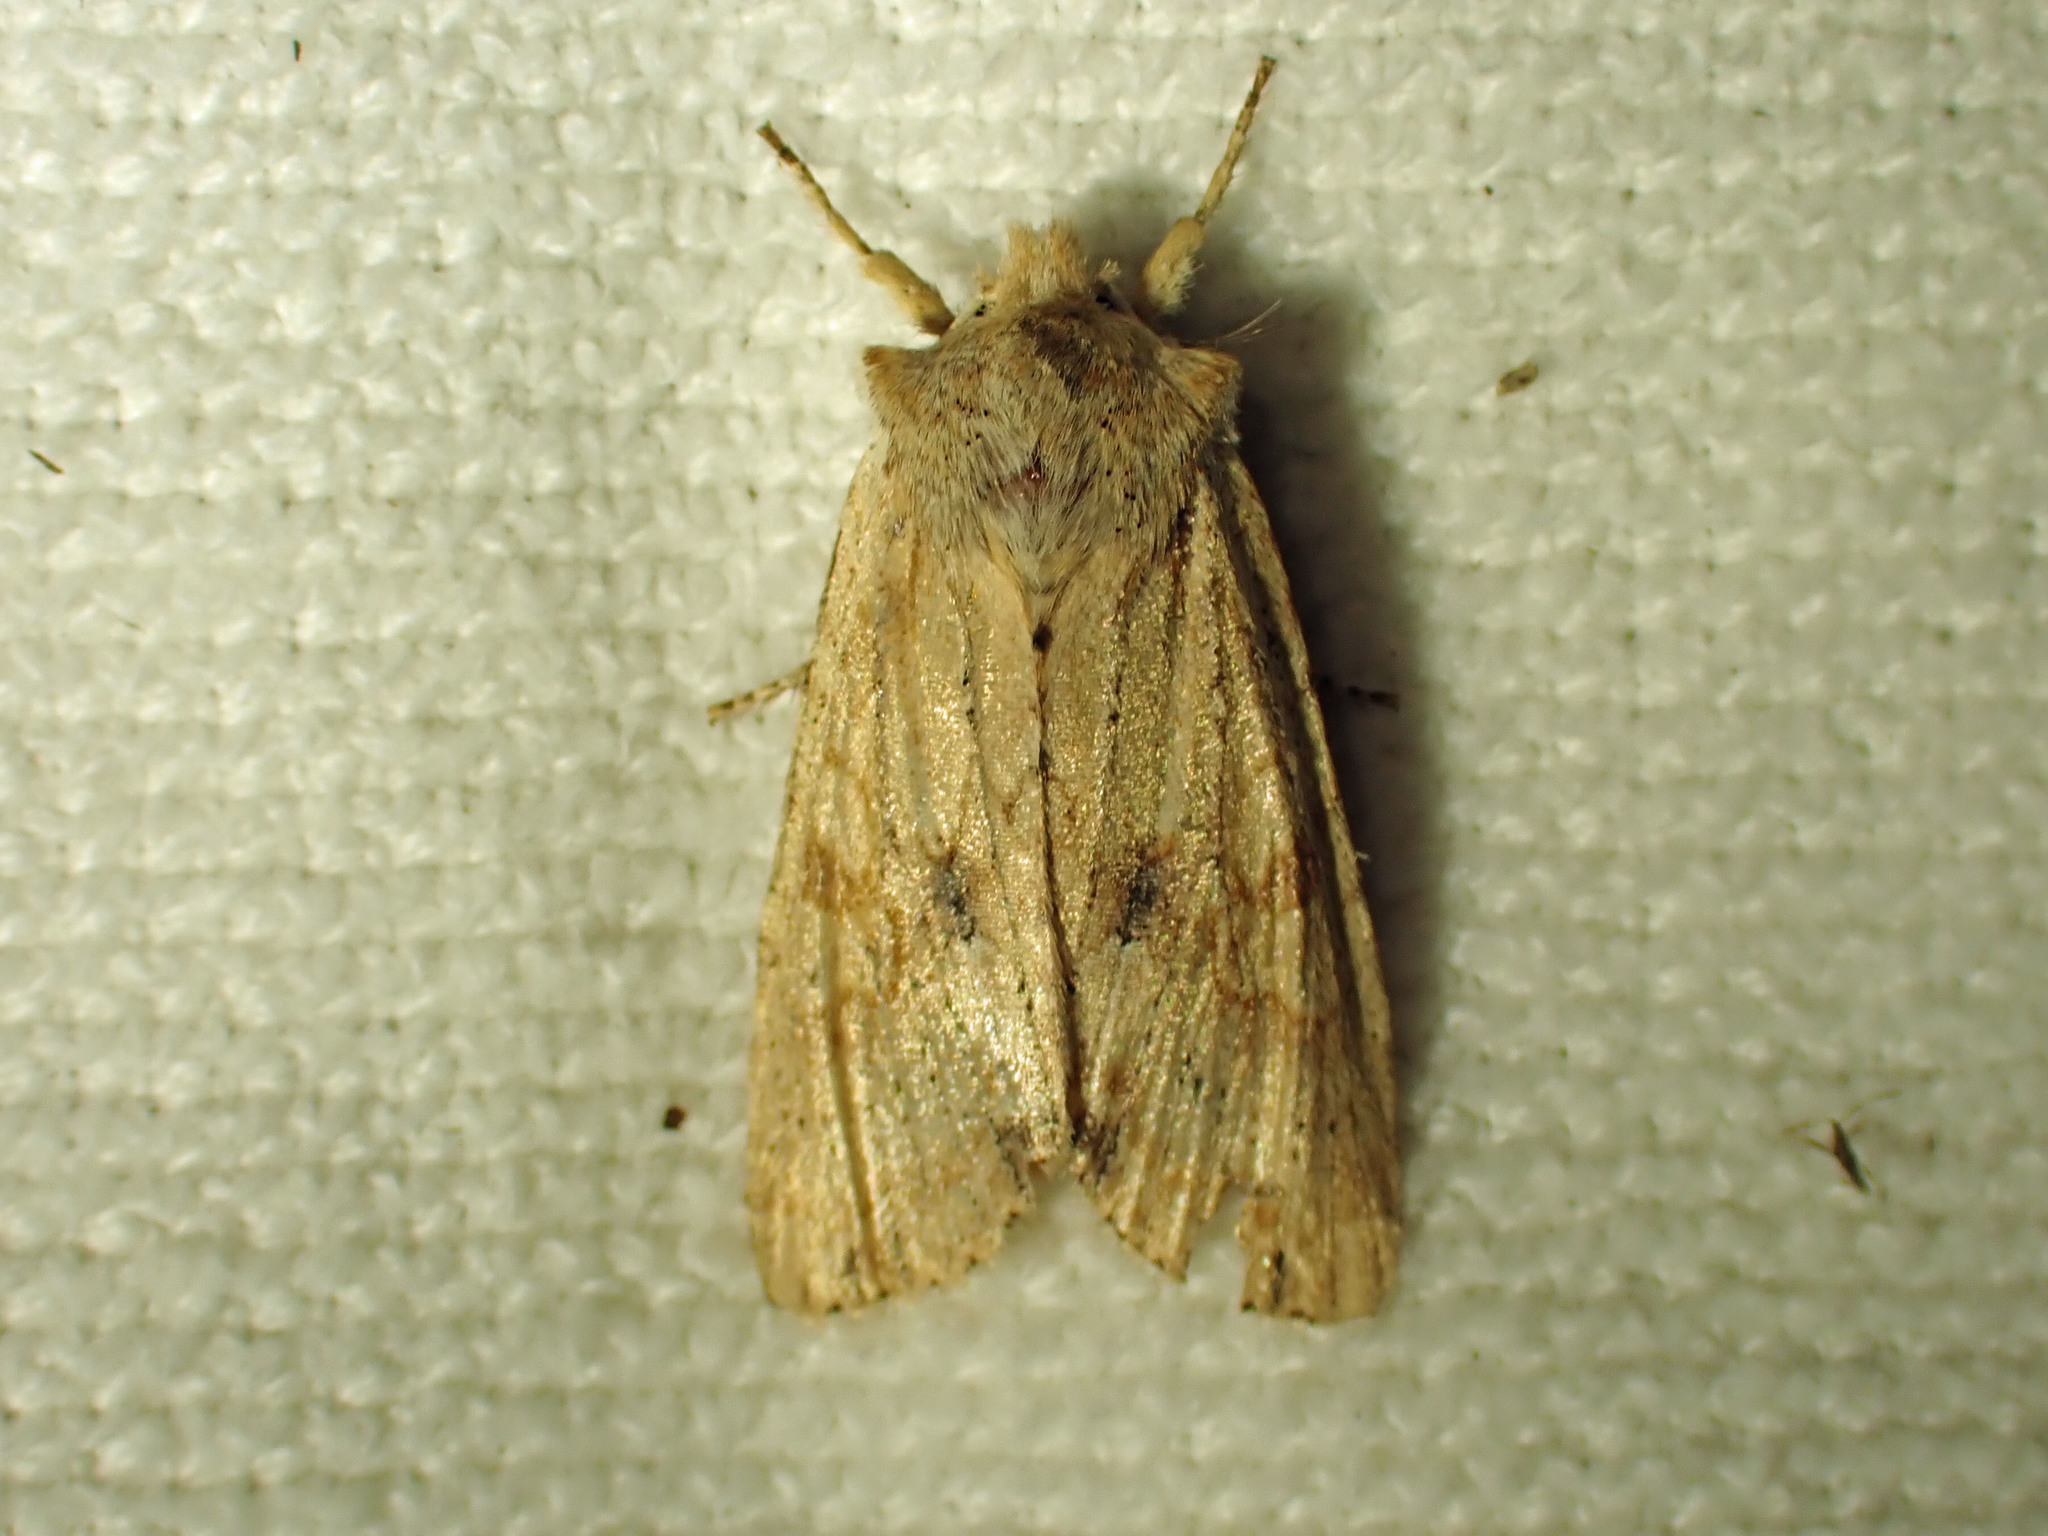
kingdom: Animalia
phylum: Arthropoda
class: Insecta
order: Lepidoptera
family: Noctuidae
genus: Lithophane
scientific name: Lithophane innominata
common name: Nameless pinion moth
